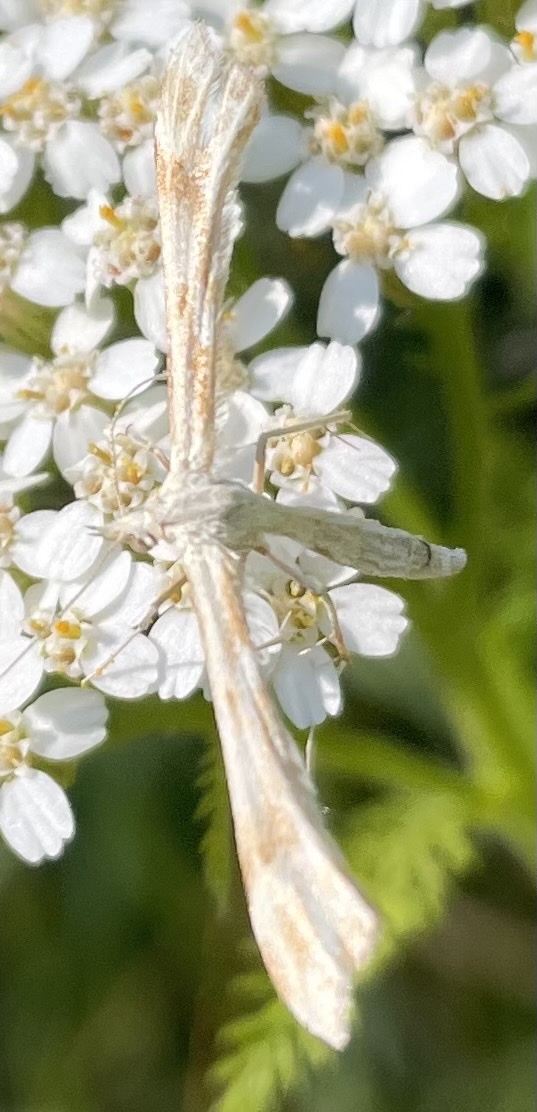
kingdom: Animalia
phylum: Arthropoda
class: Insecta
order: Lepidoptera
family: Pterophoridae
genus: Gillmeria
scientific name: Gillmeria pallidactyla
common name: Yarrow plume
